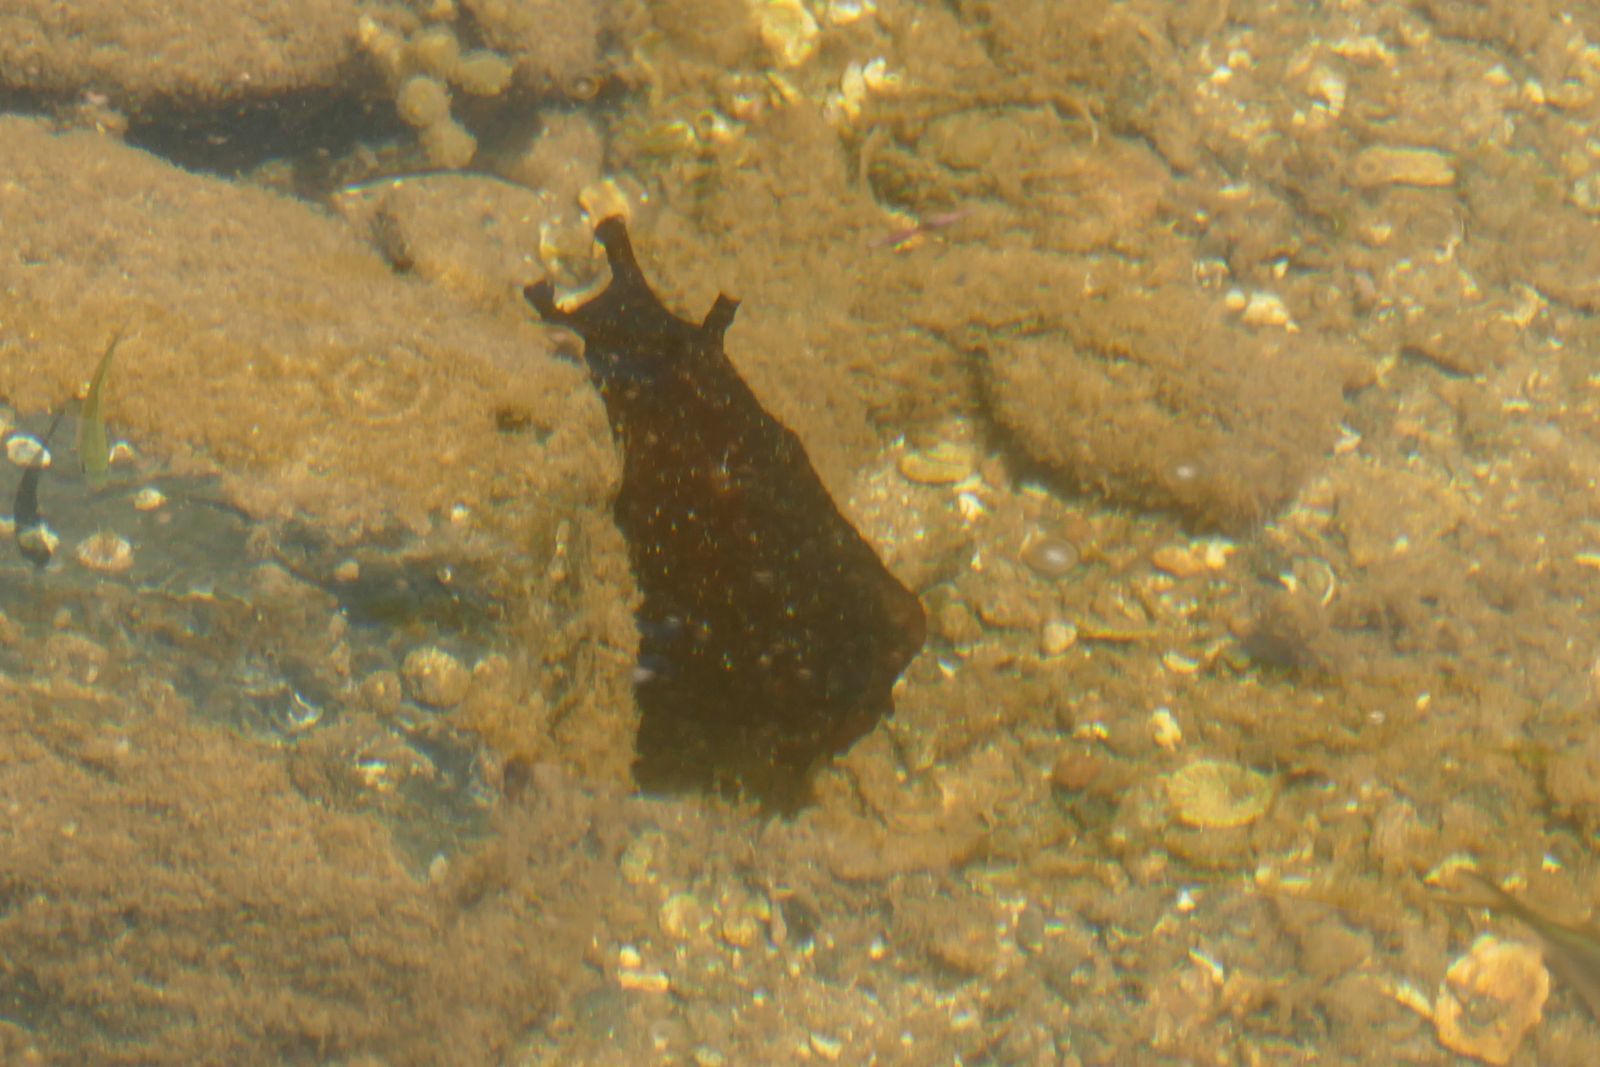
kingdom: Animalia
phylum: Mollusca
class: Gastropoda
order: Aplysiida
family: Aplysiidae
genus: Aplysia
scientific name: Aplysia juliana
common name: Walking sea hare
